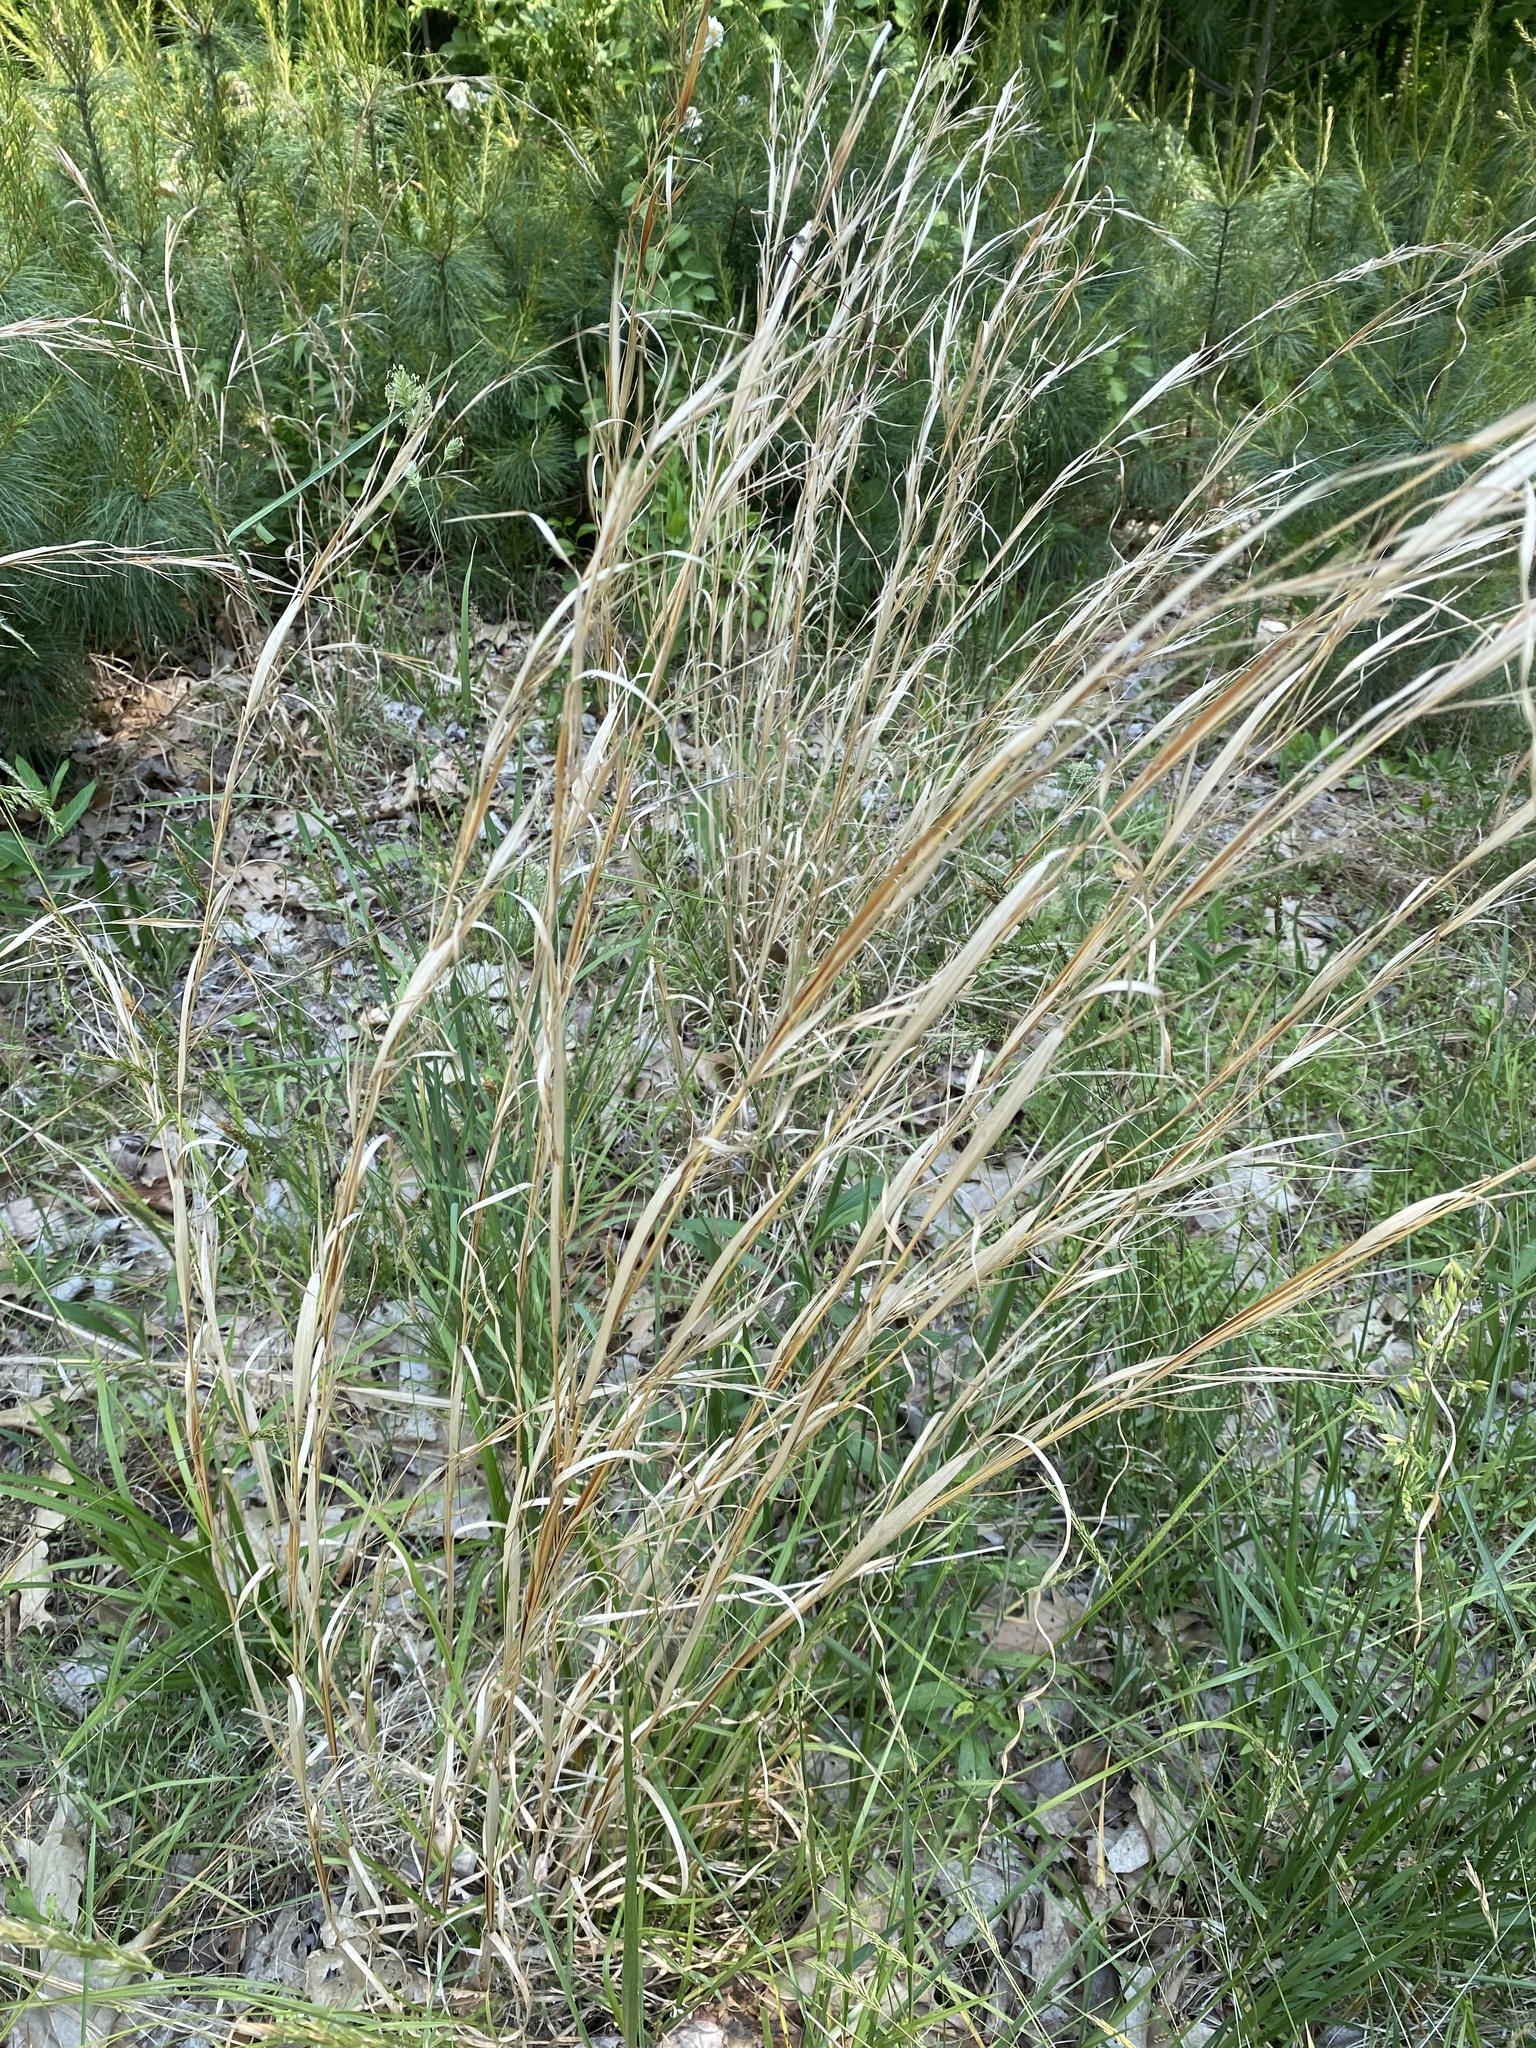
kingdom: Plantae
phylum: Tracheophyta
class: Liliopsida
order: Poales
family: Poaceae
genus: Andropogon
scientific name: Andropogon virginicus
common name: Broomsedge bluestem
